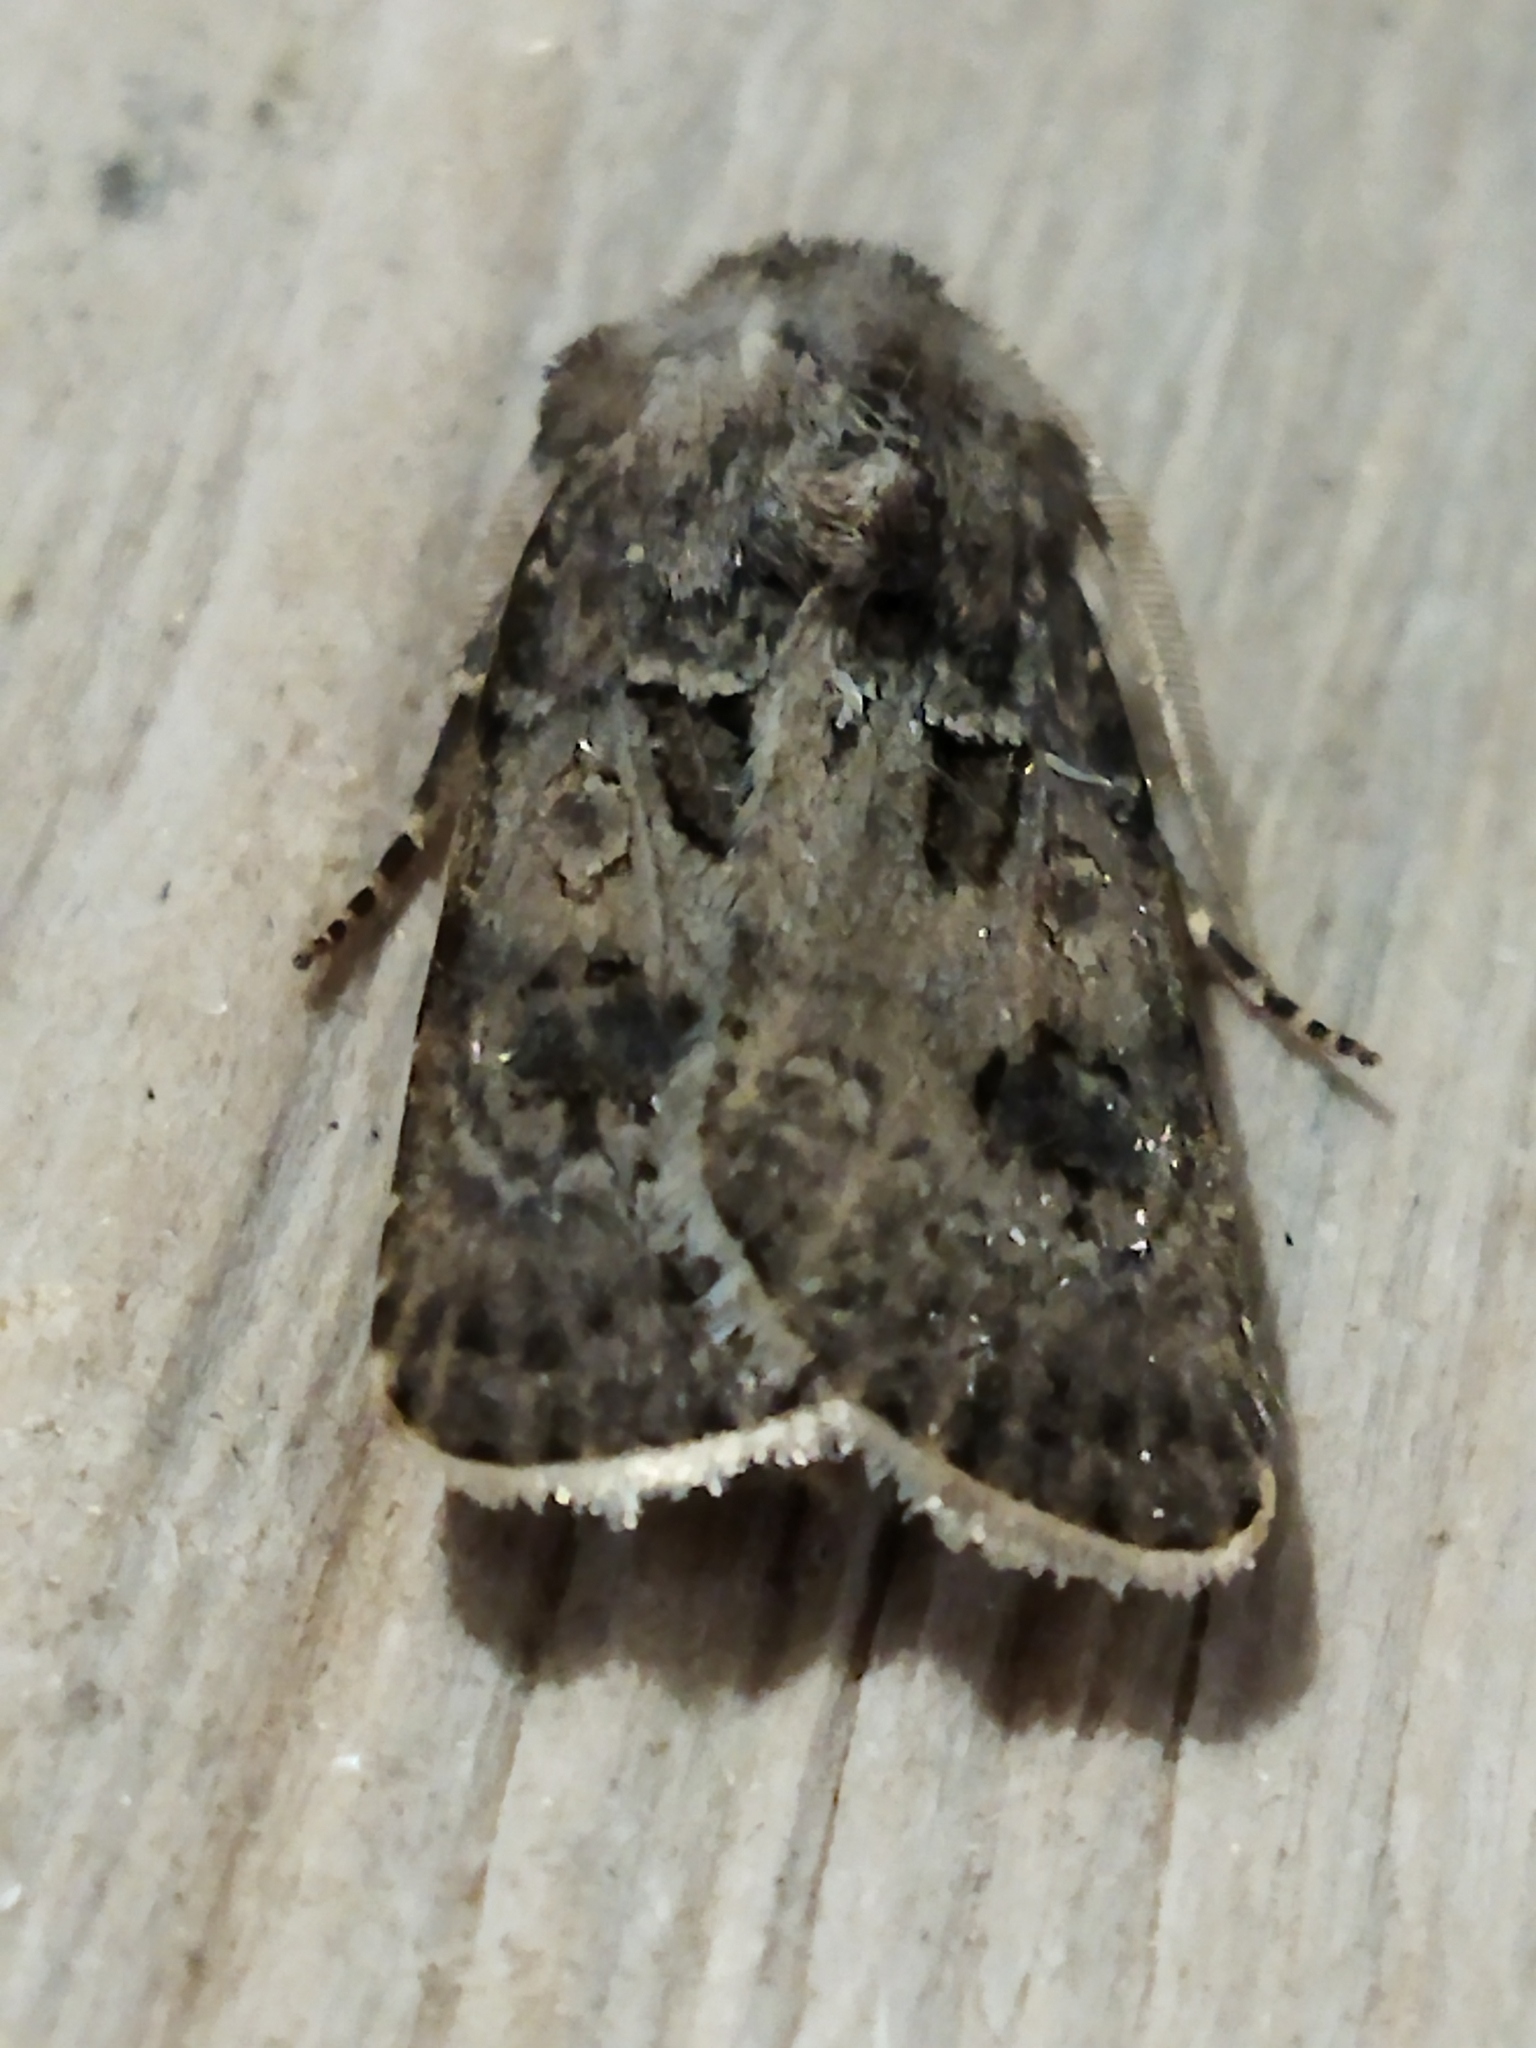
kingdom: Animalia
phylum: Arthropoda
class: Insecta
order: Lepidoptera
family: Noctuidae
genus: Agrotis
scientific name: Agrotis bigramma
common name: Great dart
